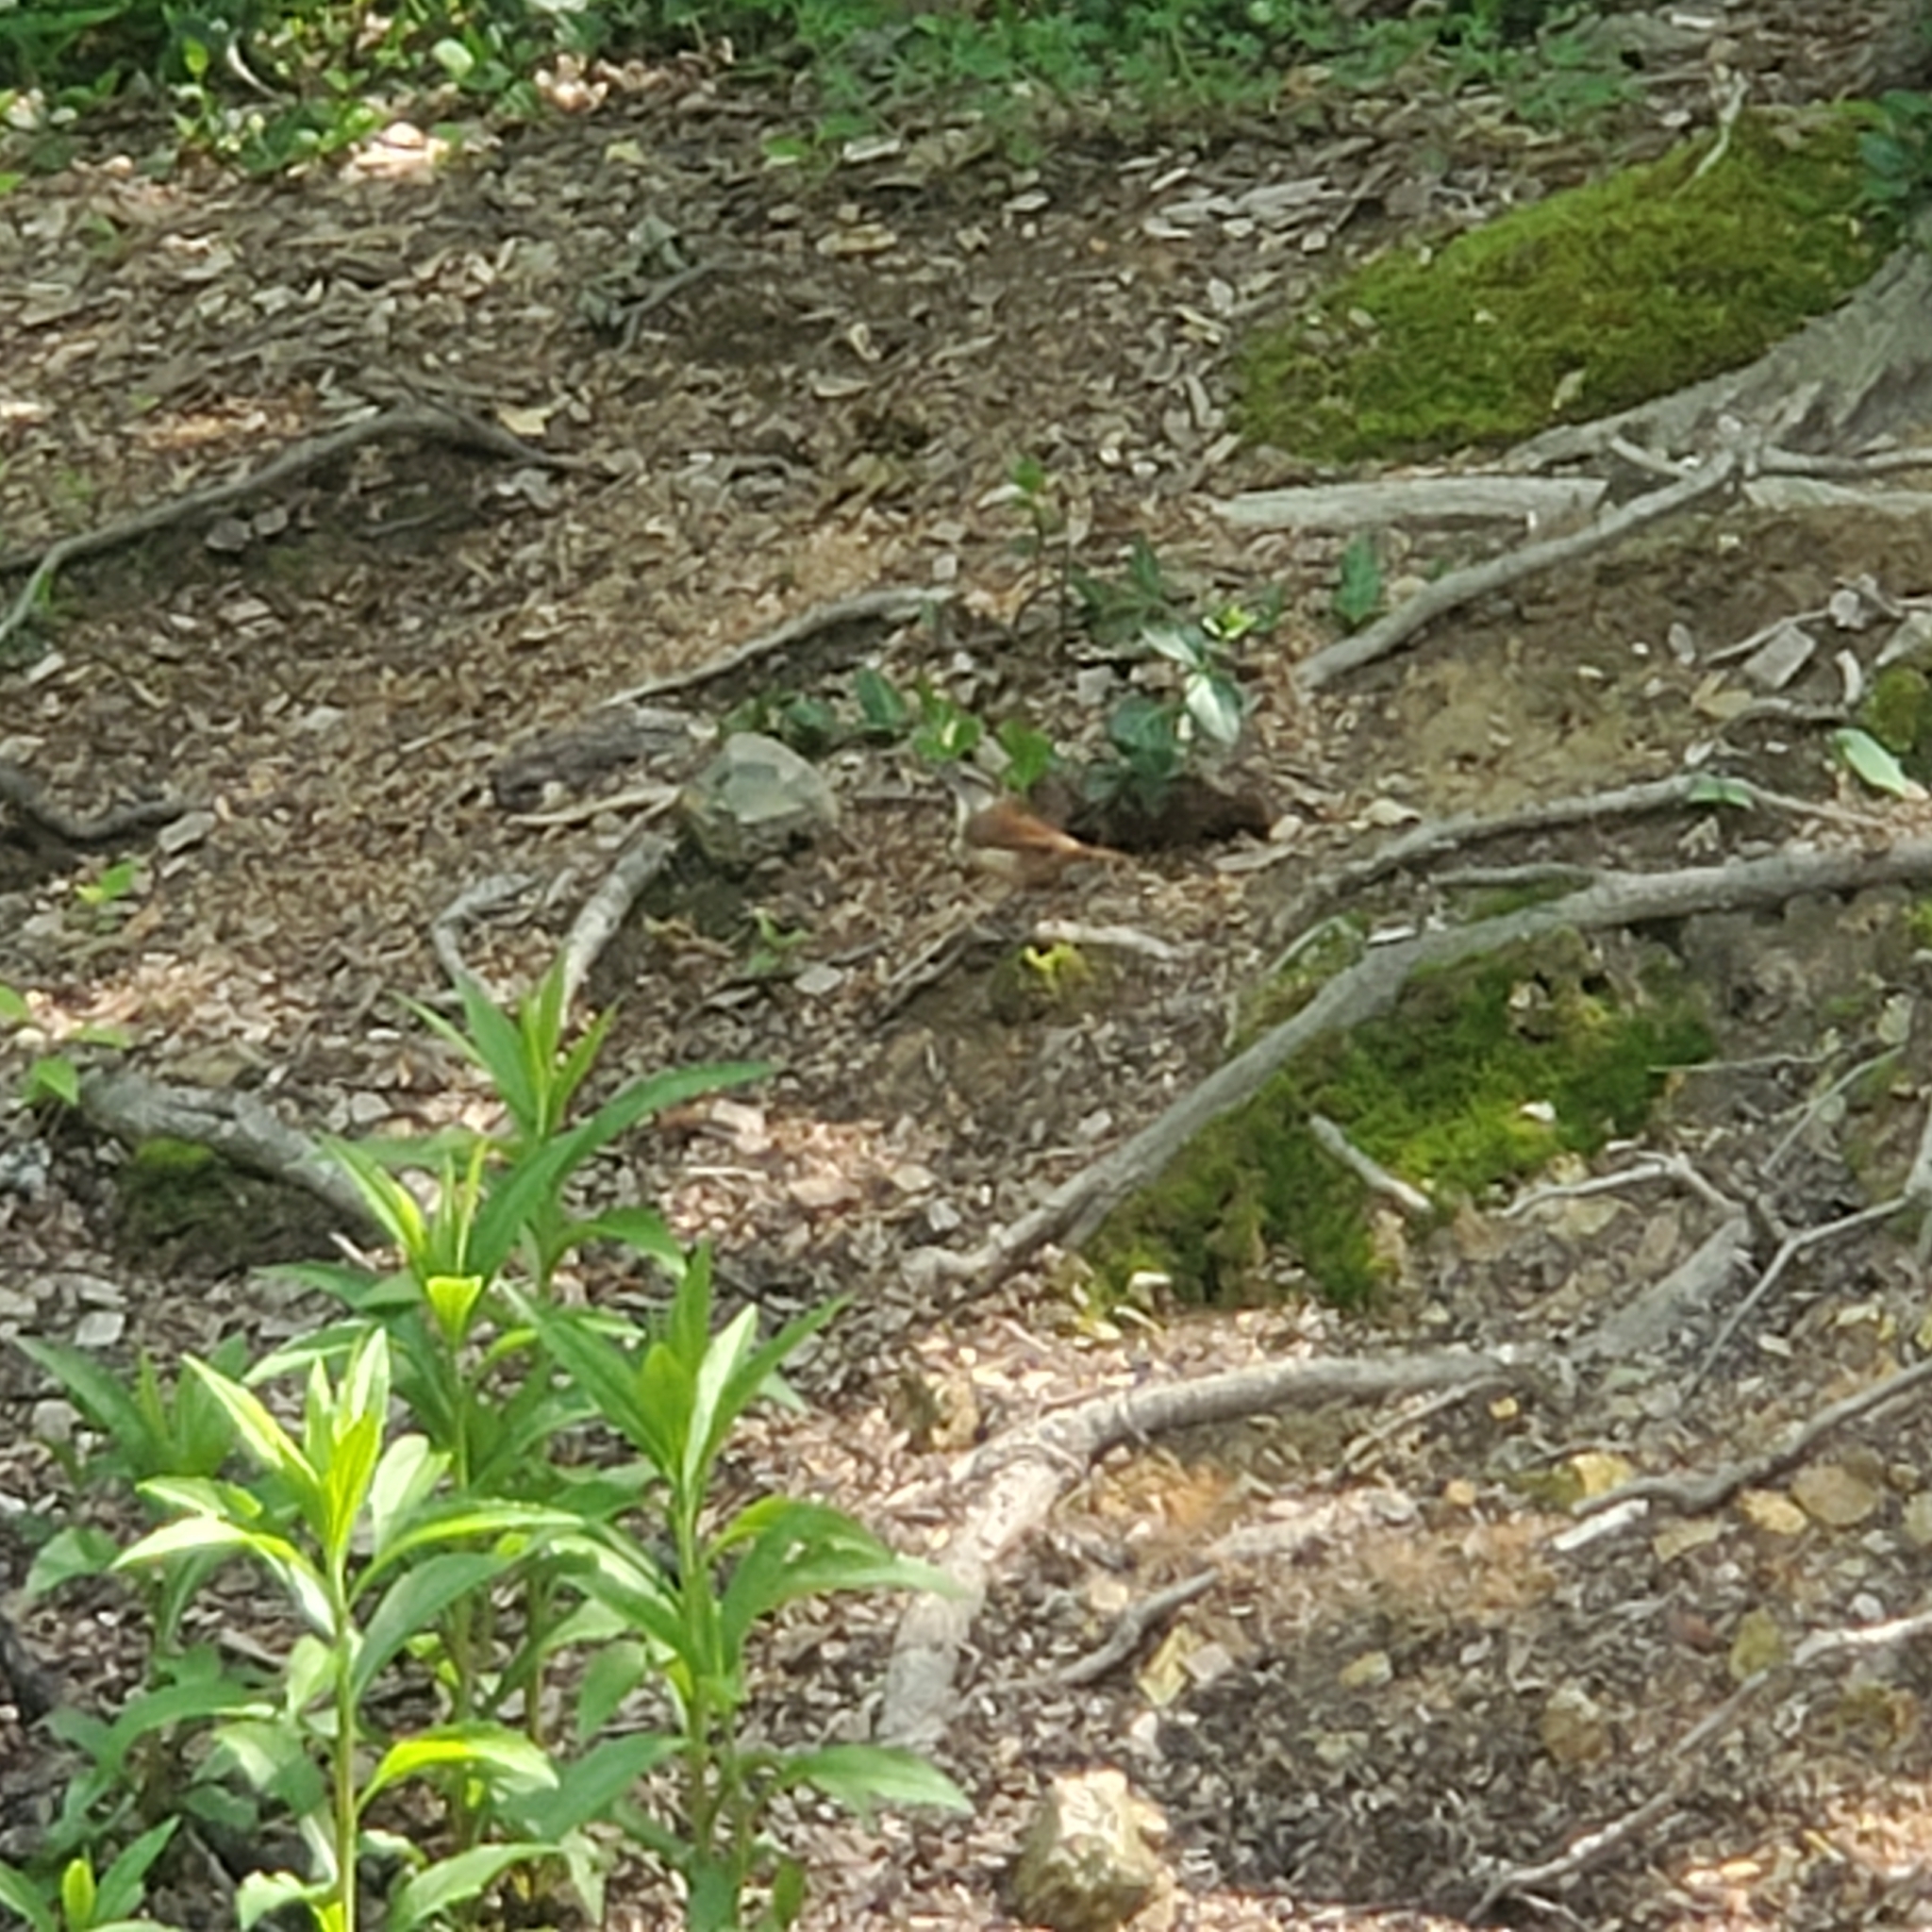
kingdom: Animalia
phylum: Chordata
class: Aves
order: Passeriformes
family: Troglodytidae
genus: Thryothorus
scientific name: Thryothorus ludovicianus
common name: Carolina wren
